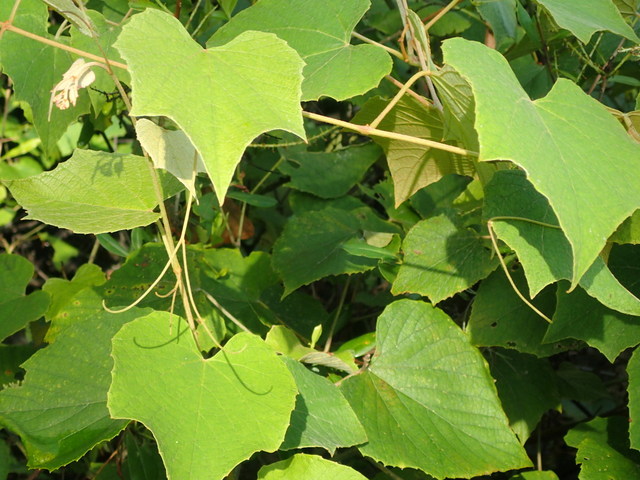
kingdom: Plantae
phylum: Tracheophyta
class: Magnoliopsida
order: Vitales
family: Vitaceae
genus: Vitis
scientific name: Vitis cinerea
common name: Ashy grape
